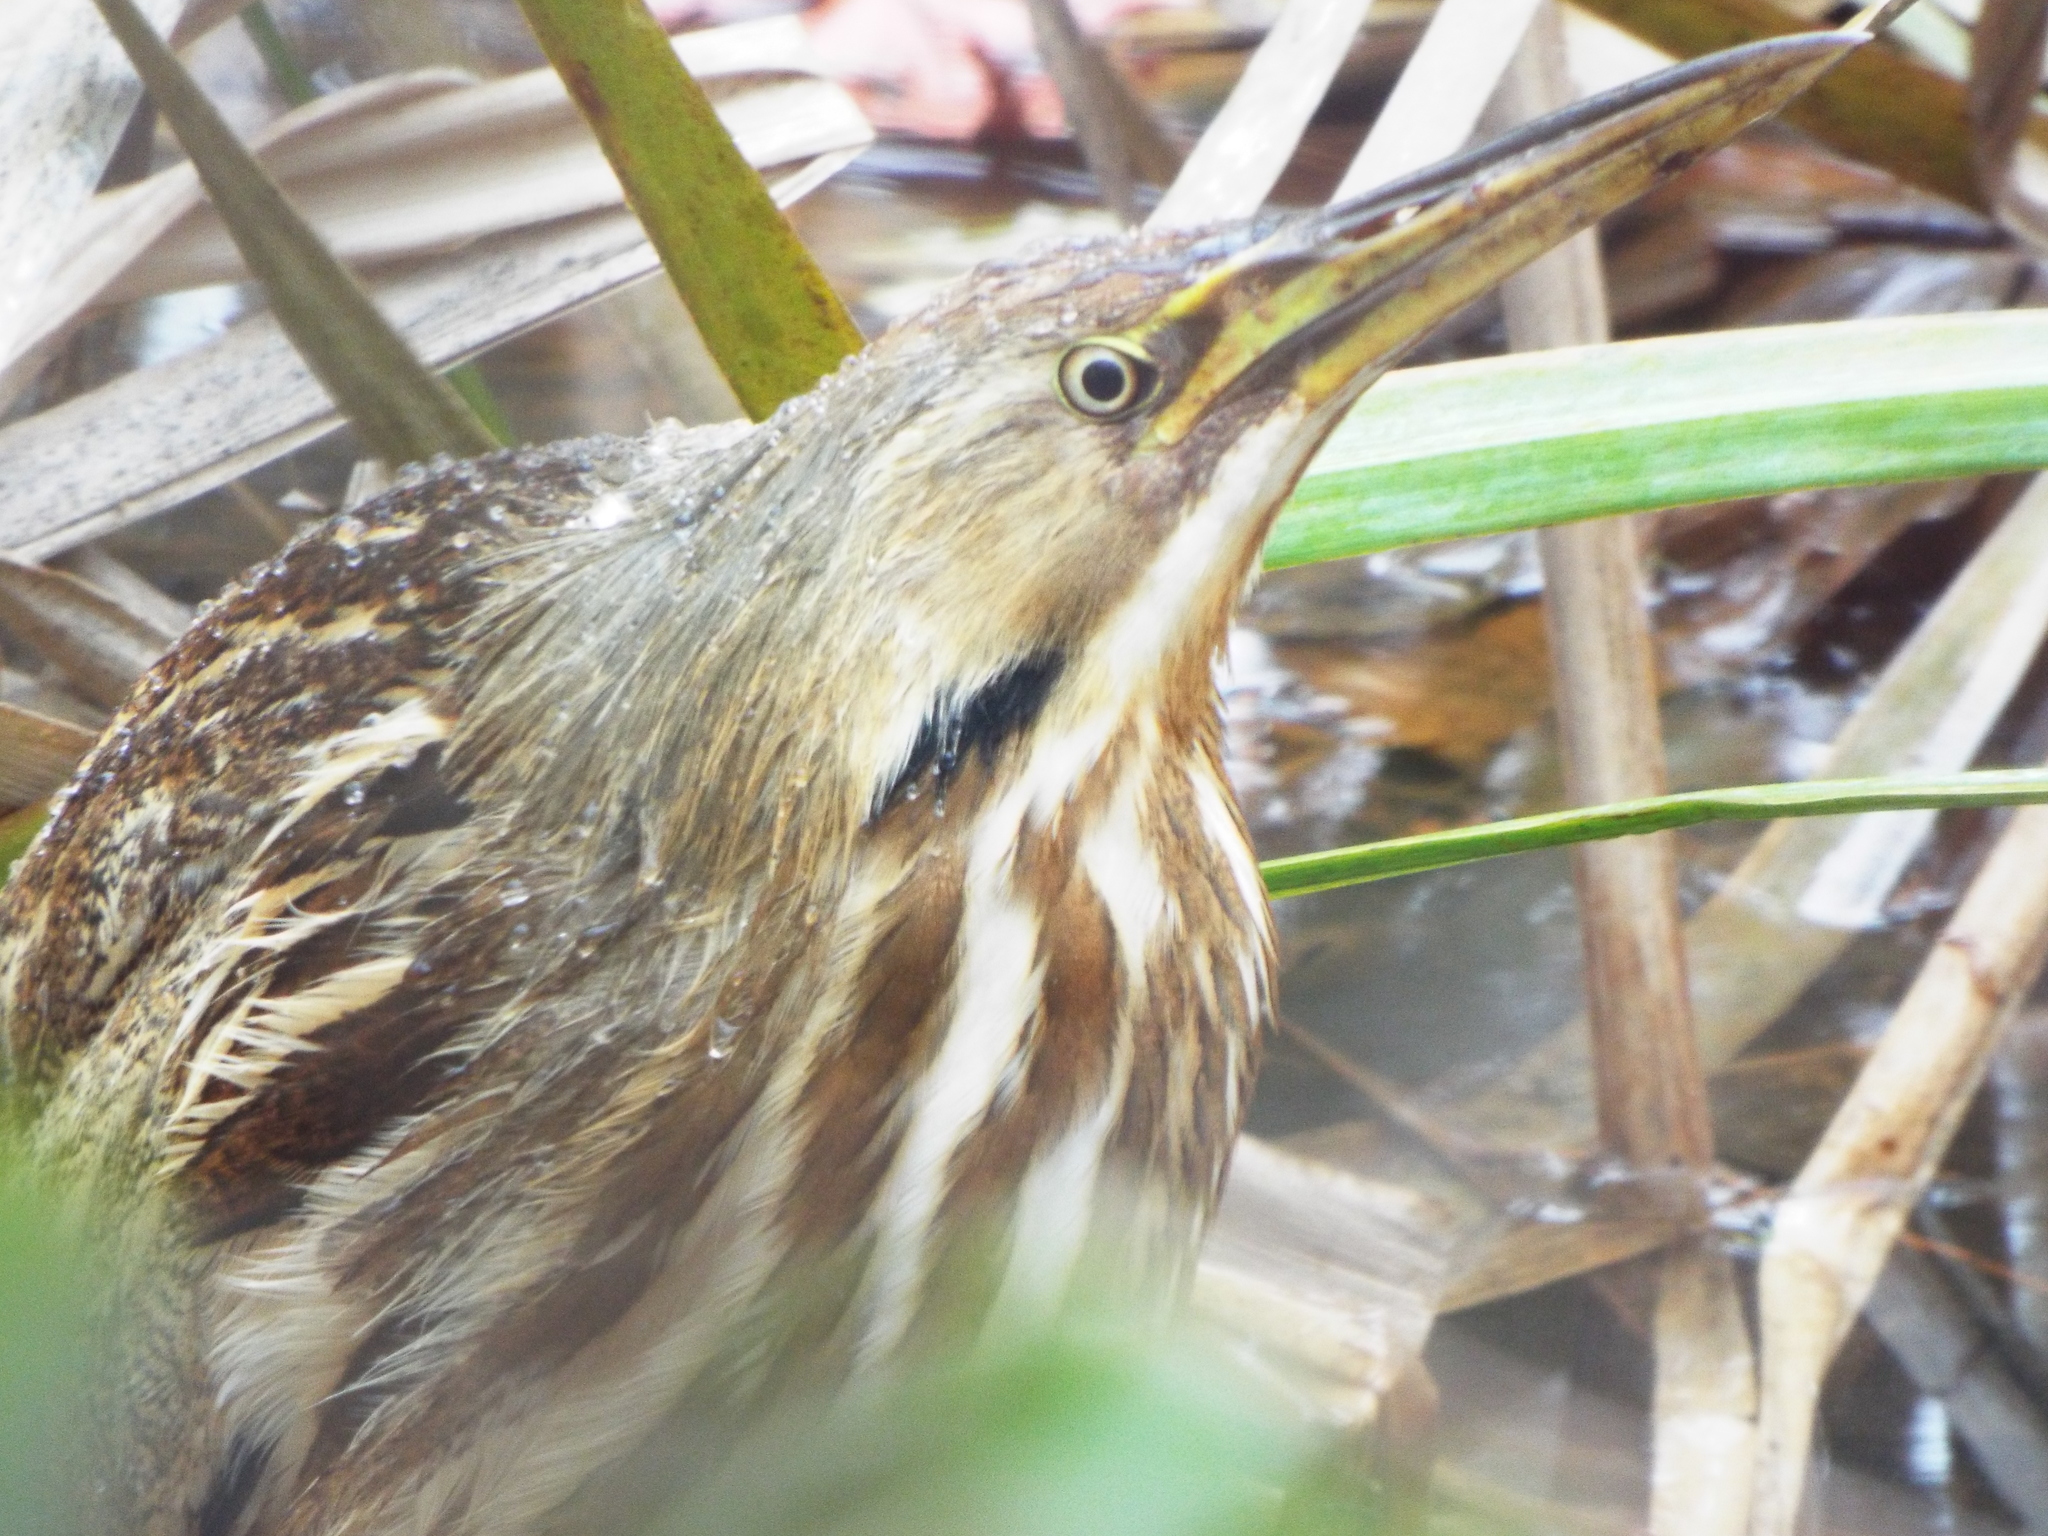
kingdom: Animalia
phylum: Chordata
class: Aves
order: Pelecaniformes
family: Ardeidae
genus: Botaurus
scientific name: Botaurus lentiginosus
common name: American bittern
